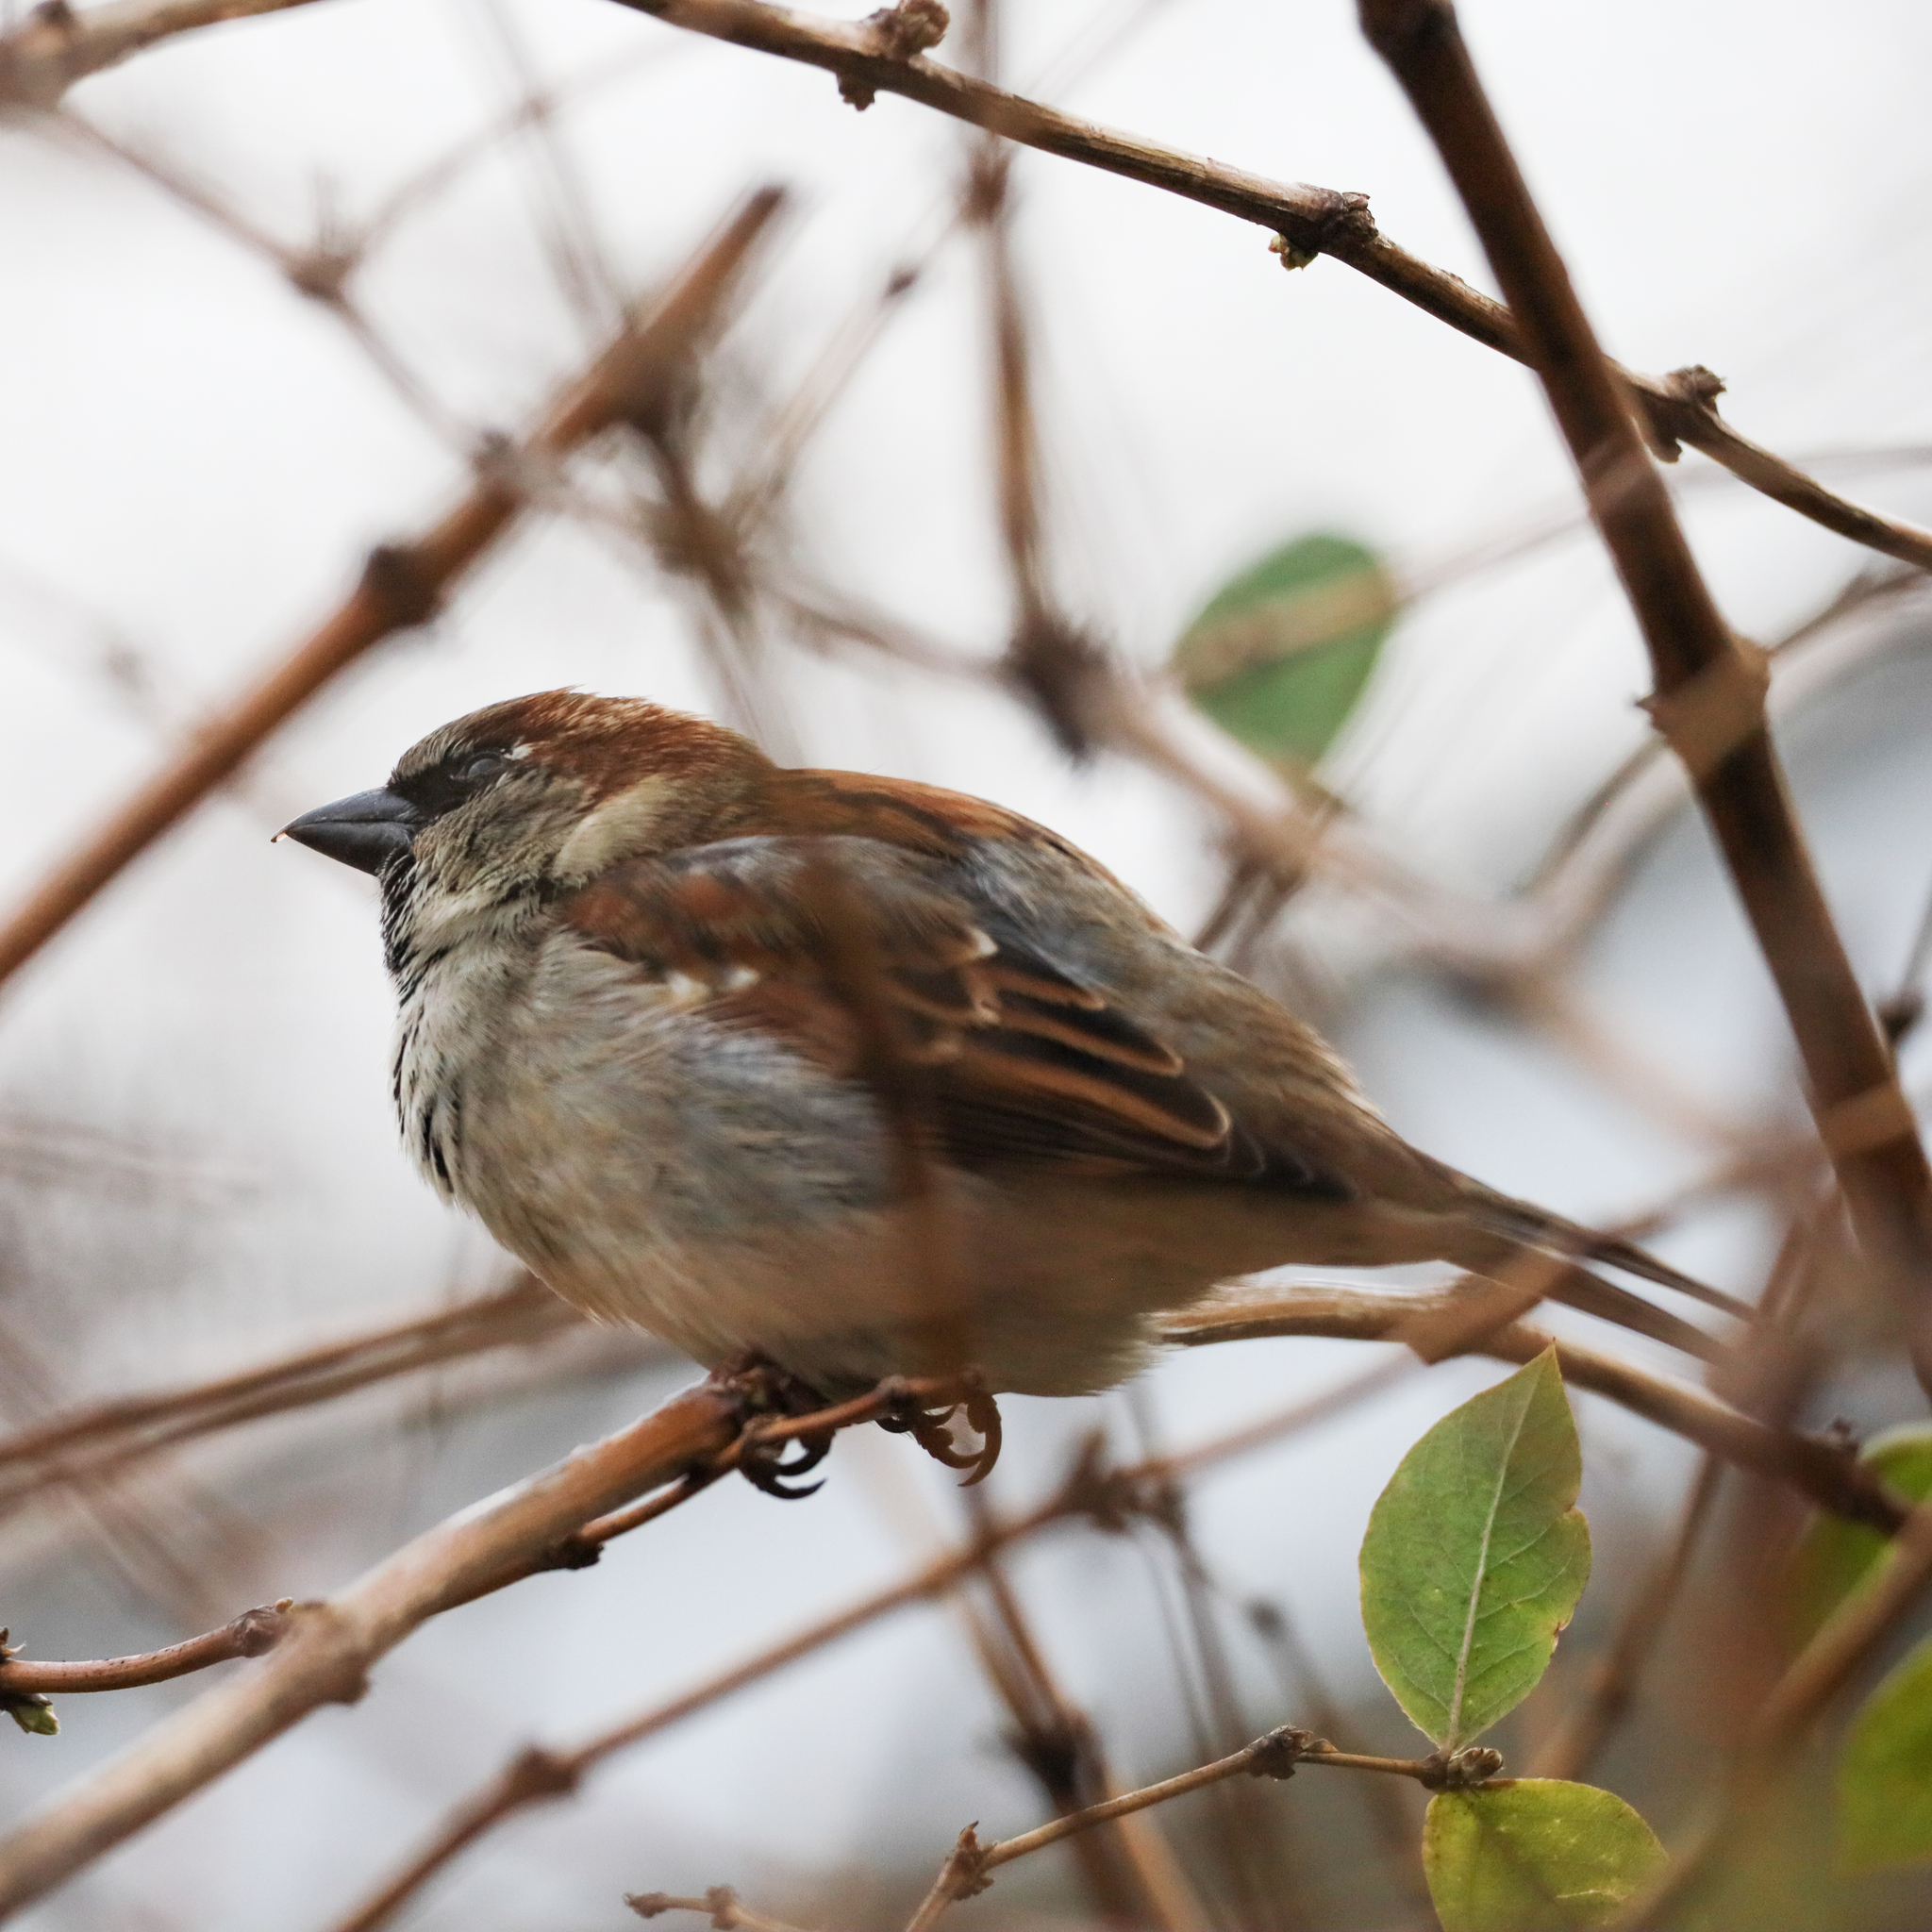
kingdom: Animalia
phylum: Chordata
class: Aves
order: Passeriformes
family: Passeridae
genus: Passer
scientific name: Passer domesticus
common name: House sparrow
